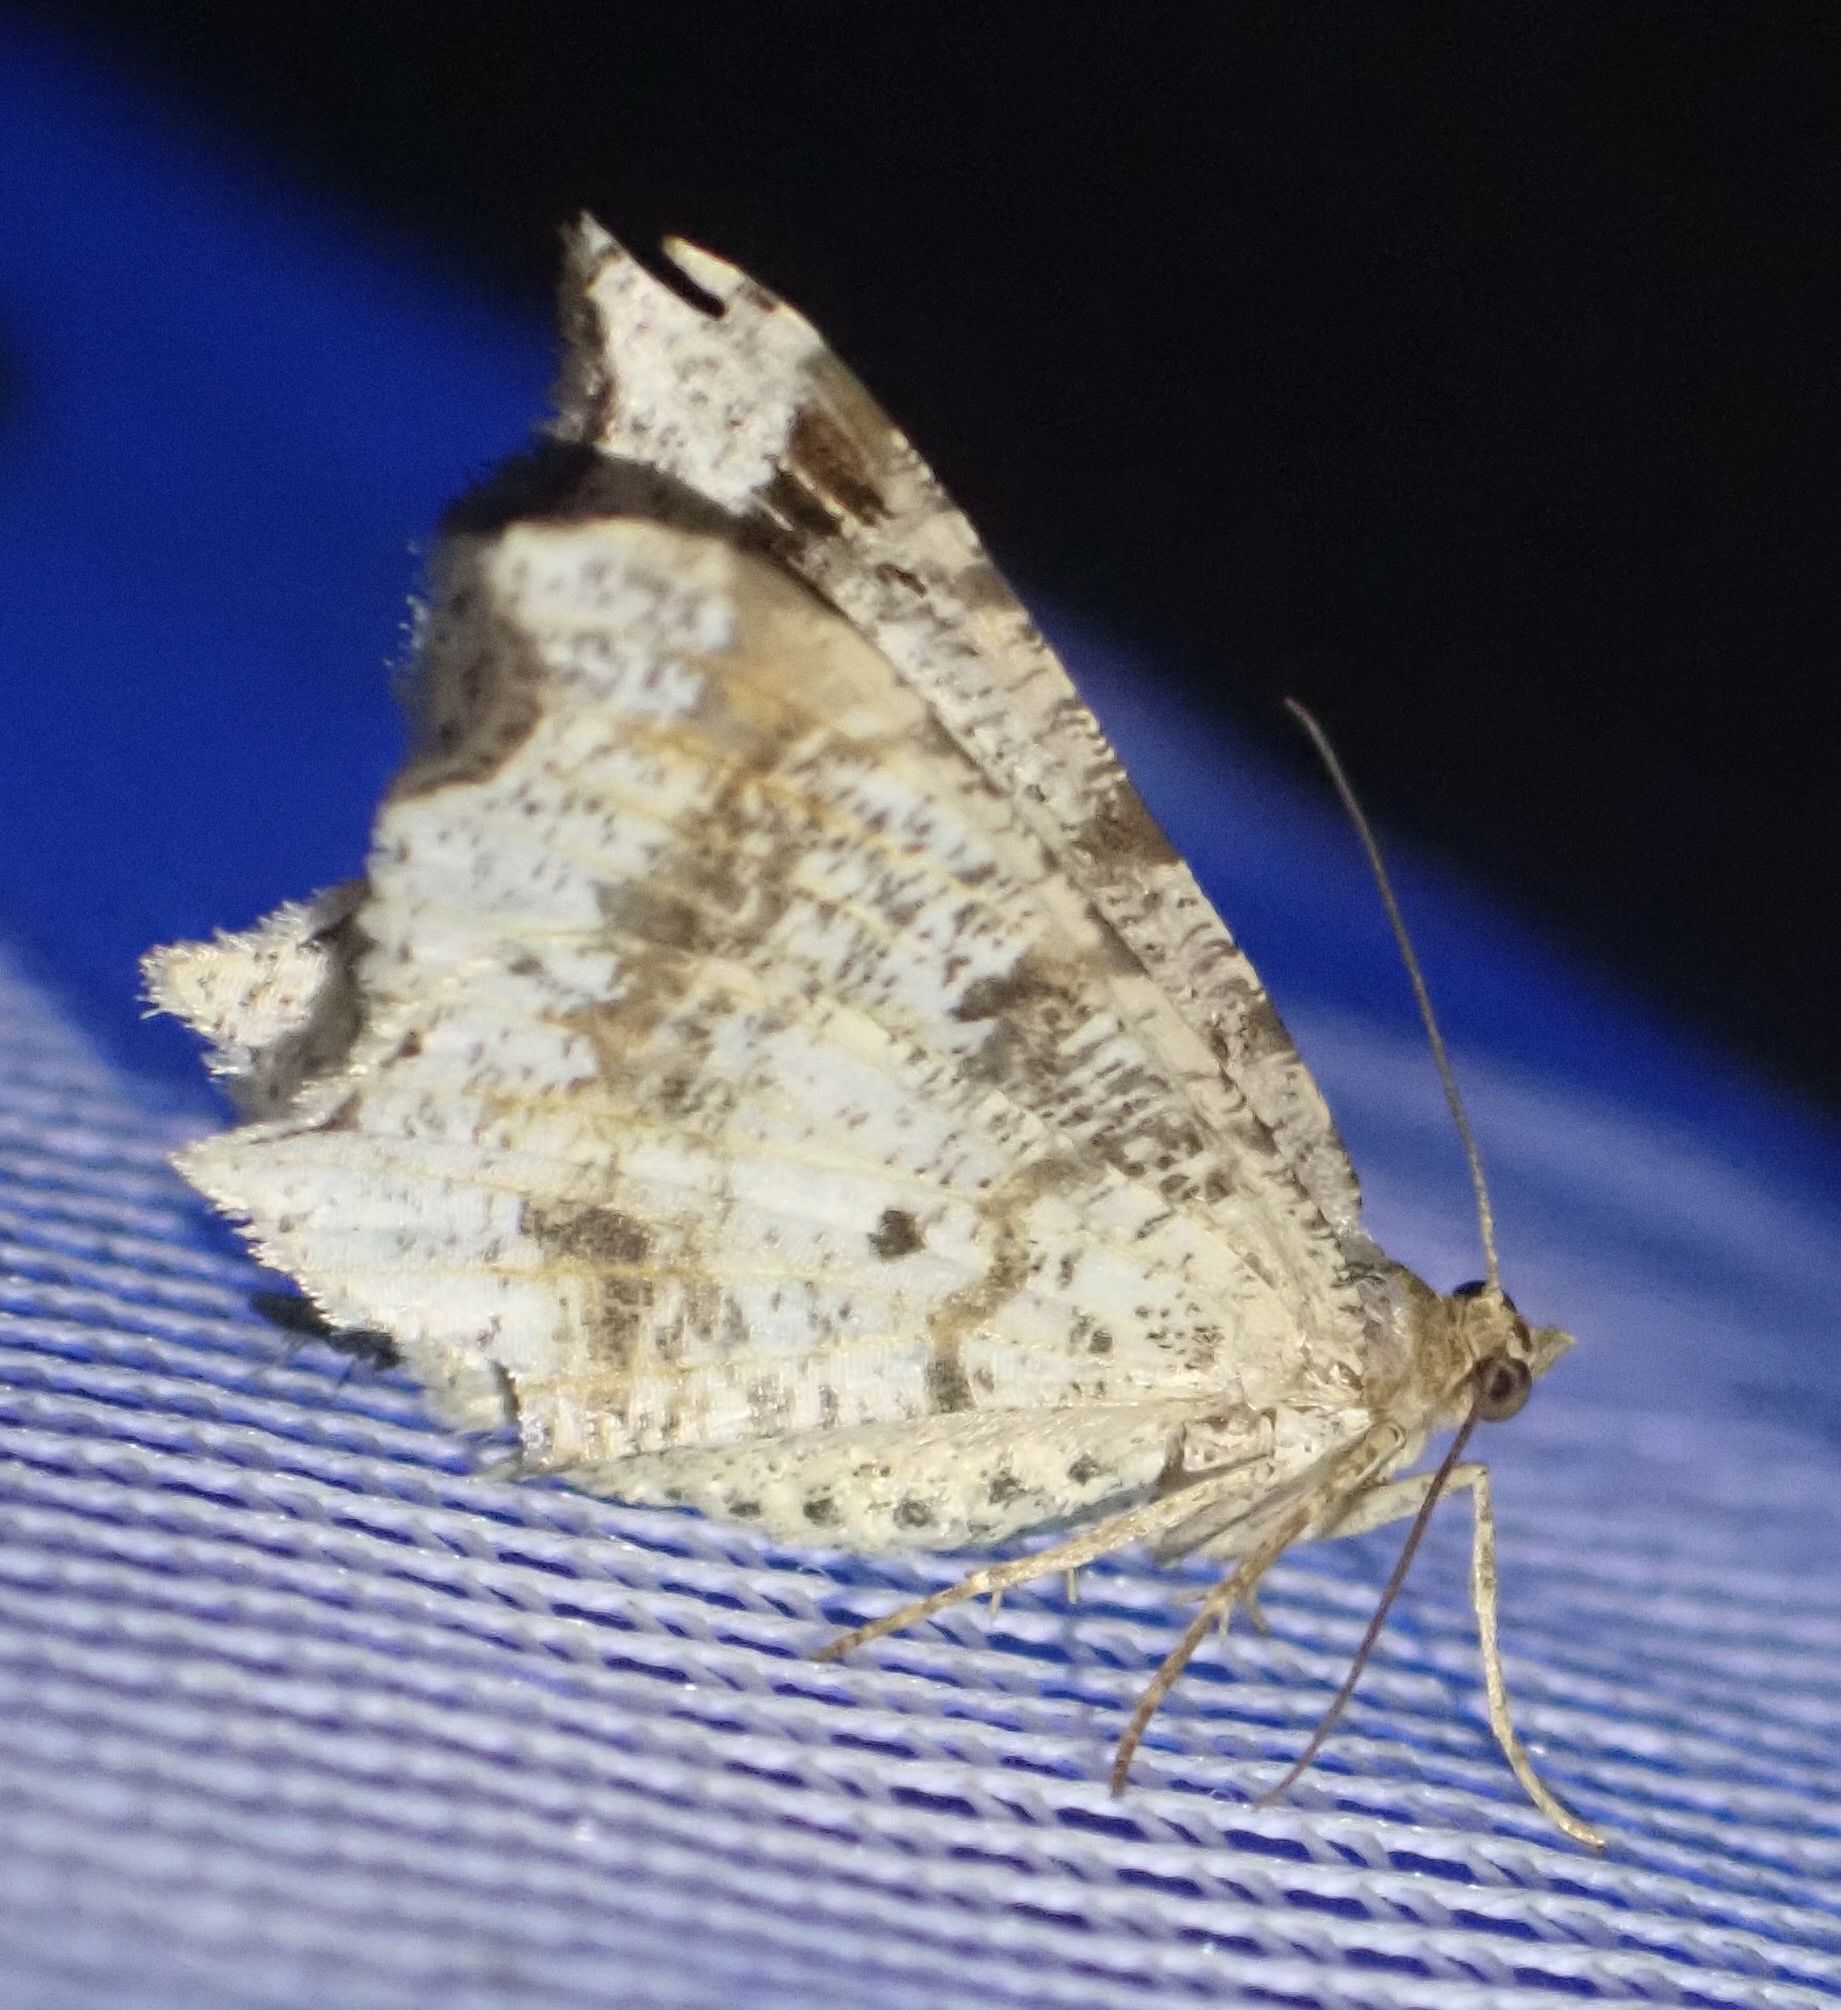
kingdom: Animalia
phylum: Arthropoda
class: Insecta
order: Lepidoptera
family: Geometridae
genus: Macaria
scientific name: Macaria alternata
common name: Sharp-angled peacock
